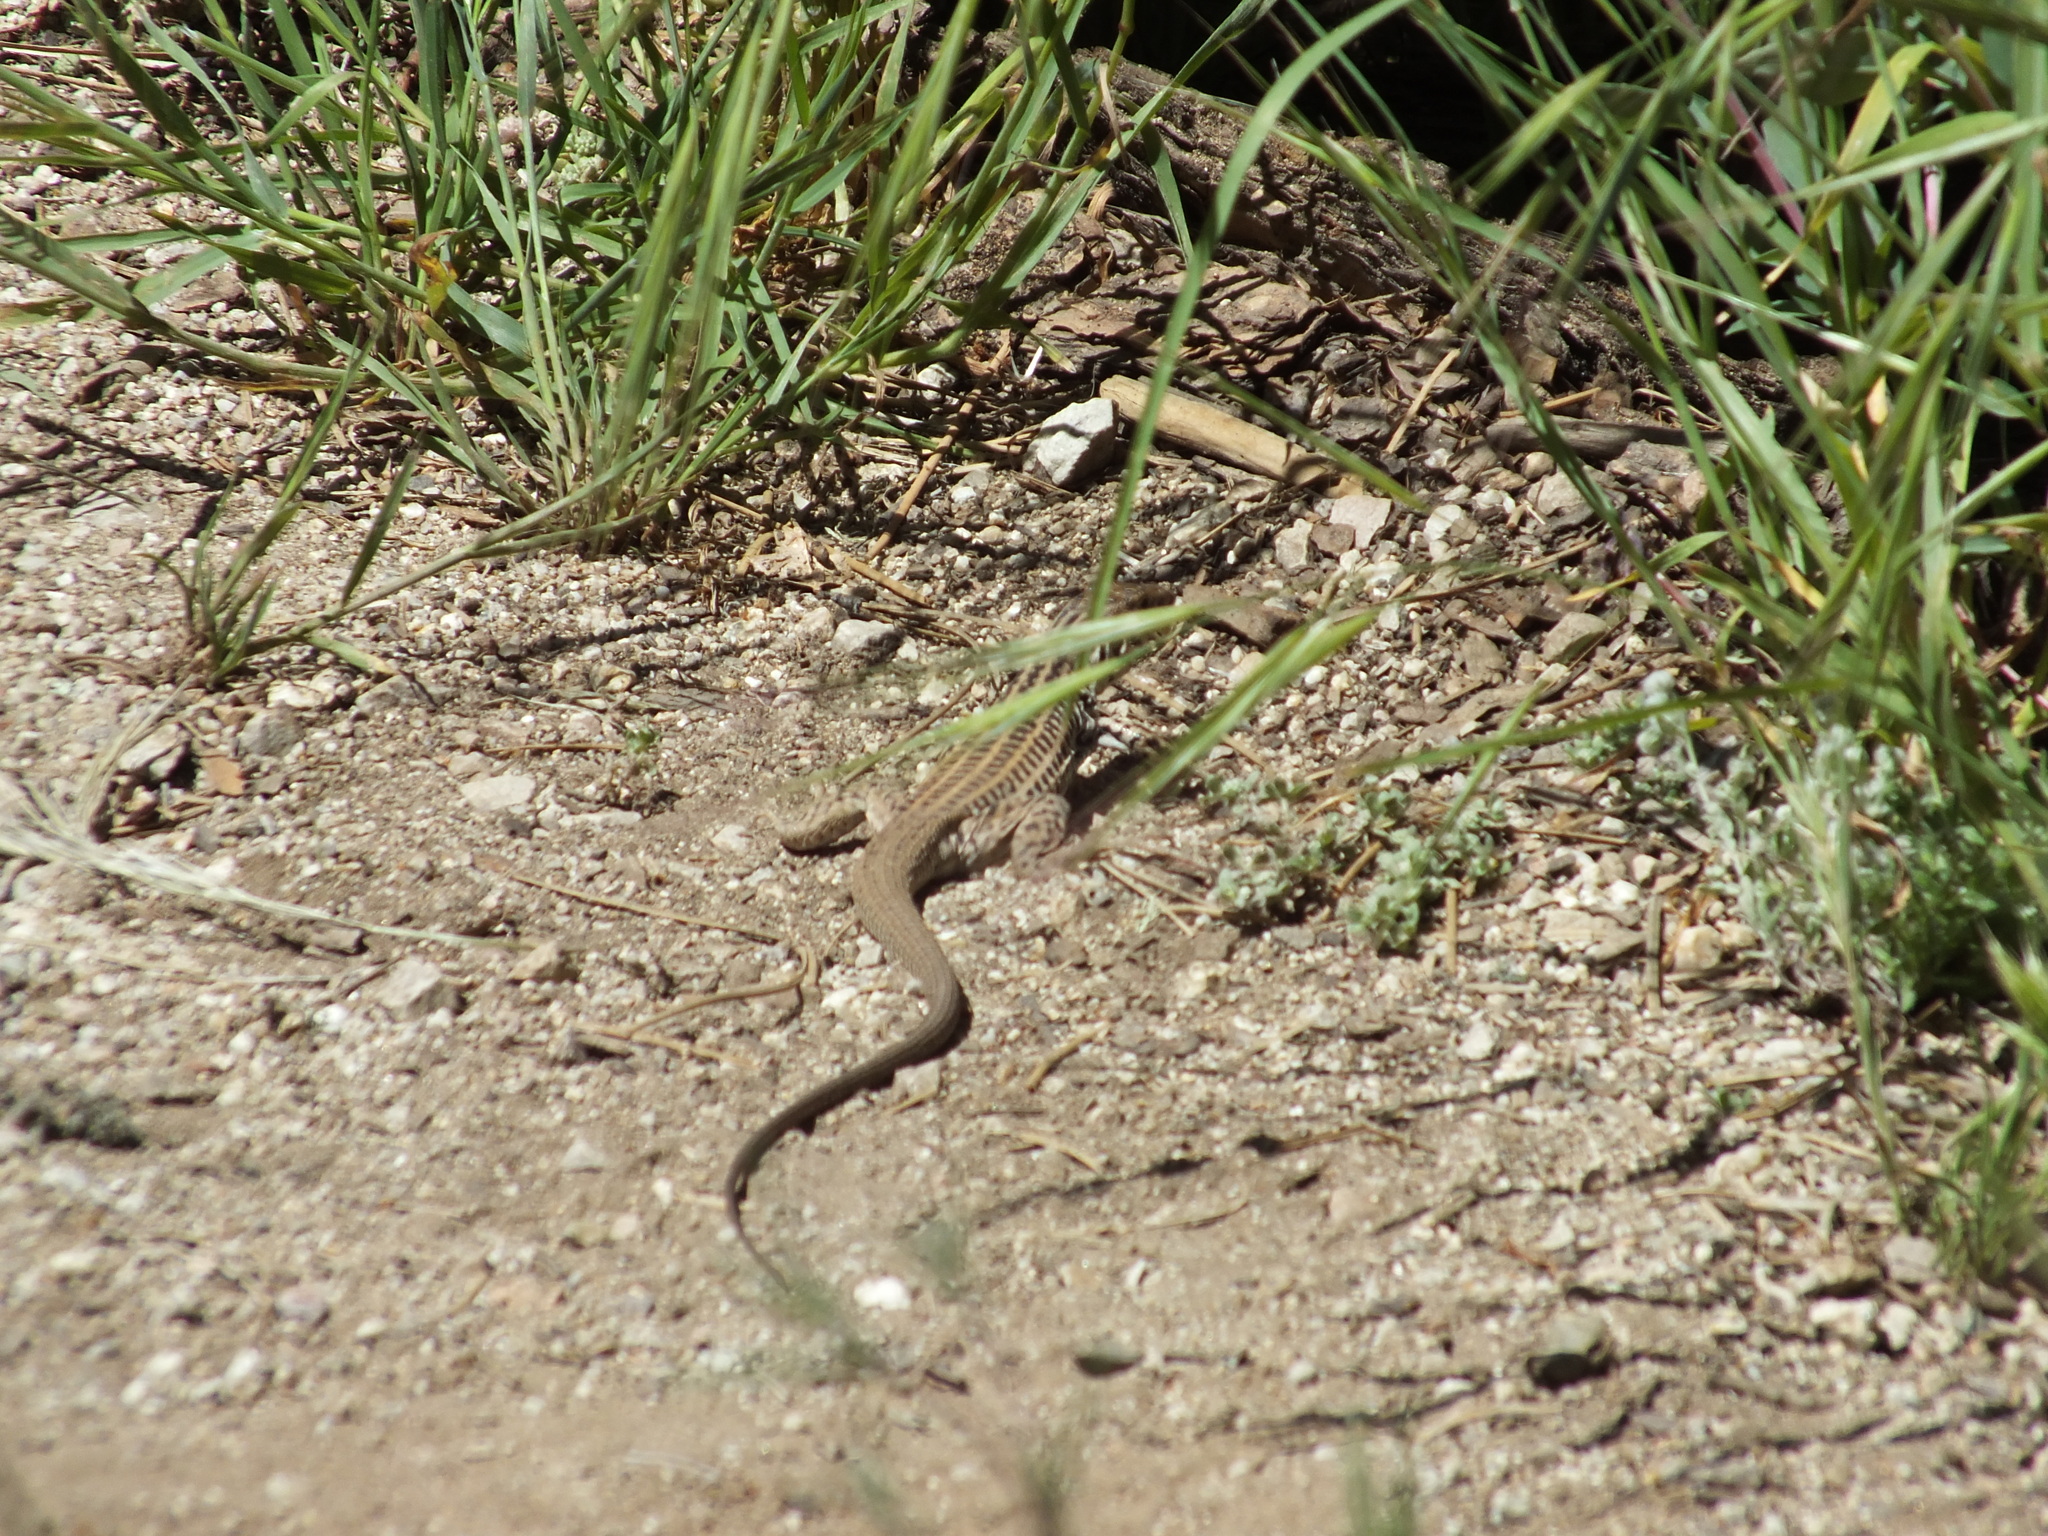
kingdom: Animalia
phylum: Chordata
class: Squamata
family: Teiidae
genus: Aspidoscelis
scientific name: Aspidoscelis tigris
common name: Tiger whiptail
